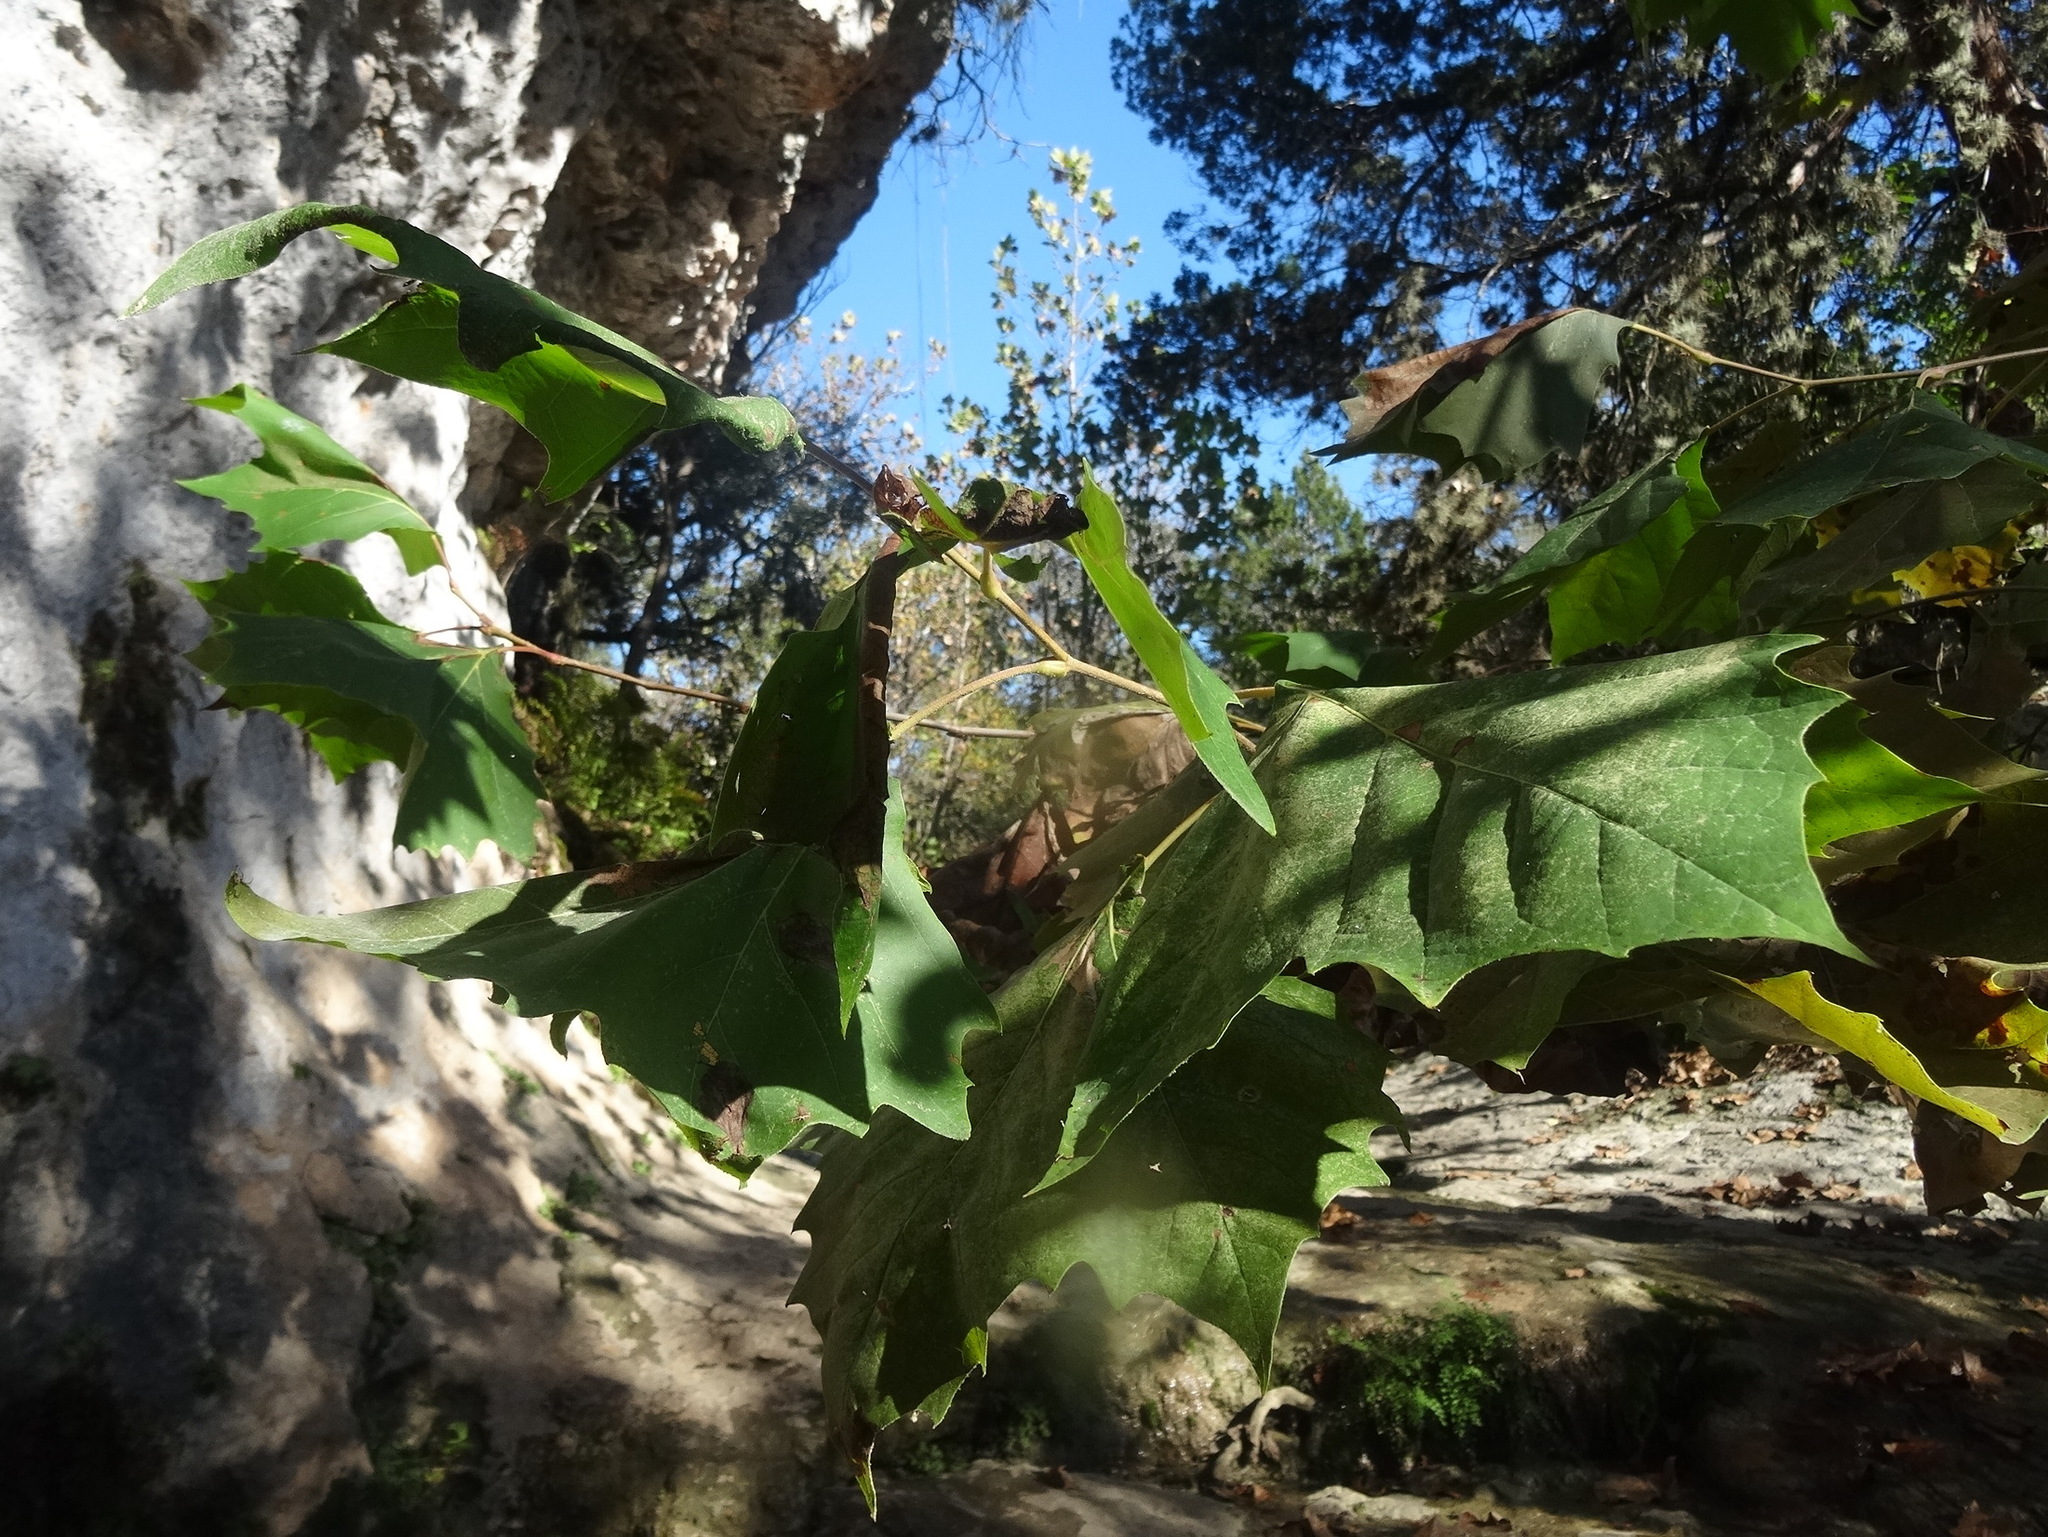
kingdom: Plantae
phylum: Tracheophyta
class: Magnoliopsida
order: Proteales
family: Platanaceae
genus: Platanus
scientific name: Platanus occidentalis
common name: American sycamore
